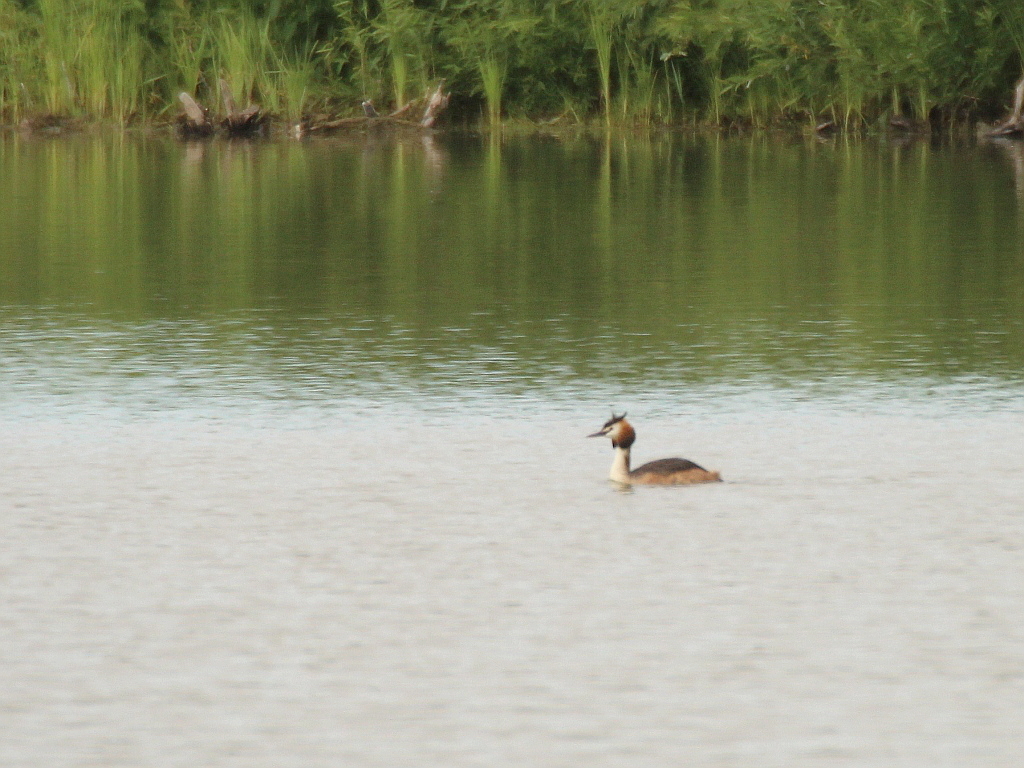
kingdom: Animalia
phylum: Chordata
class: Aves
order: Podicipediformes
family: Podicipedidae
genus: Podiceps
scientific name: Podiceps cristatus
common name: Great crested grebe
